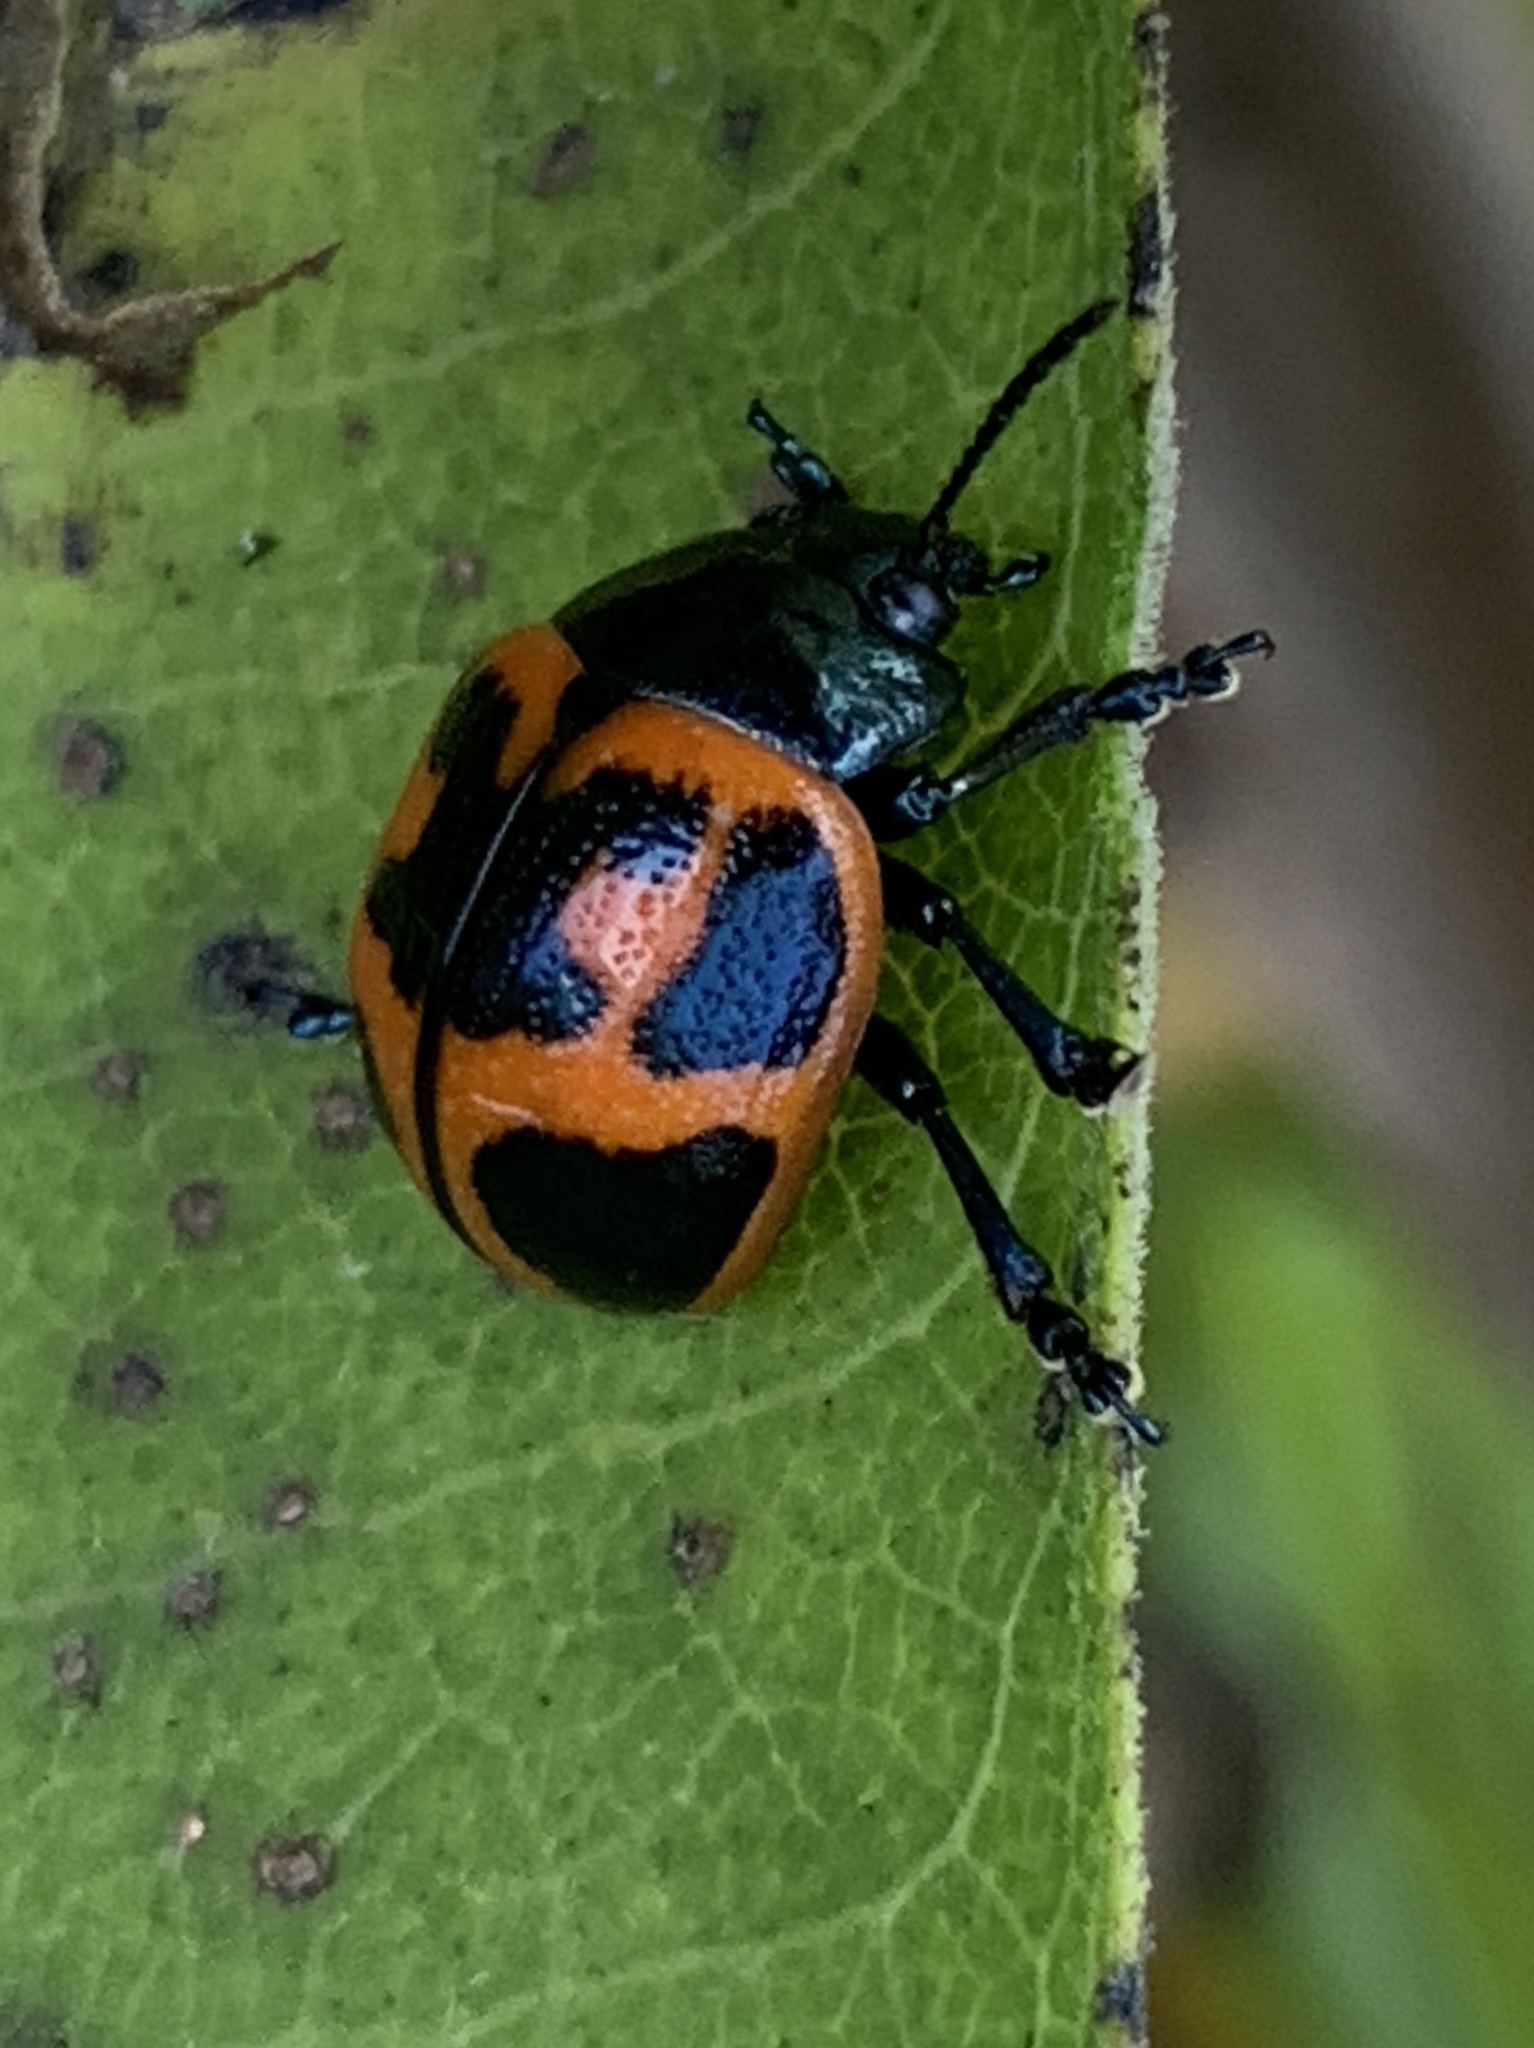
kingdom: Animalia
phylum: Arthropoda
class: Insecta
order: Coleoptera
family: Chrysomelidae
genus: Labidomera
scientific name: Labidomera clivicollis
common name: Swamp milkweed leaf beetle
